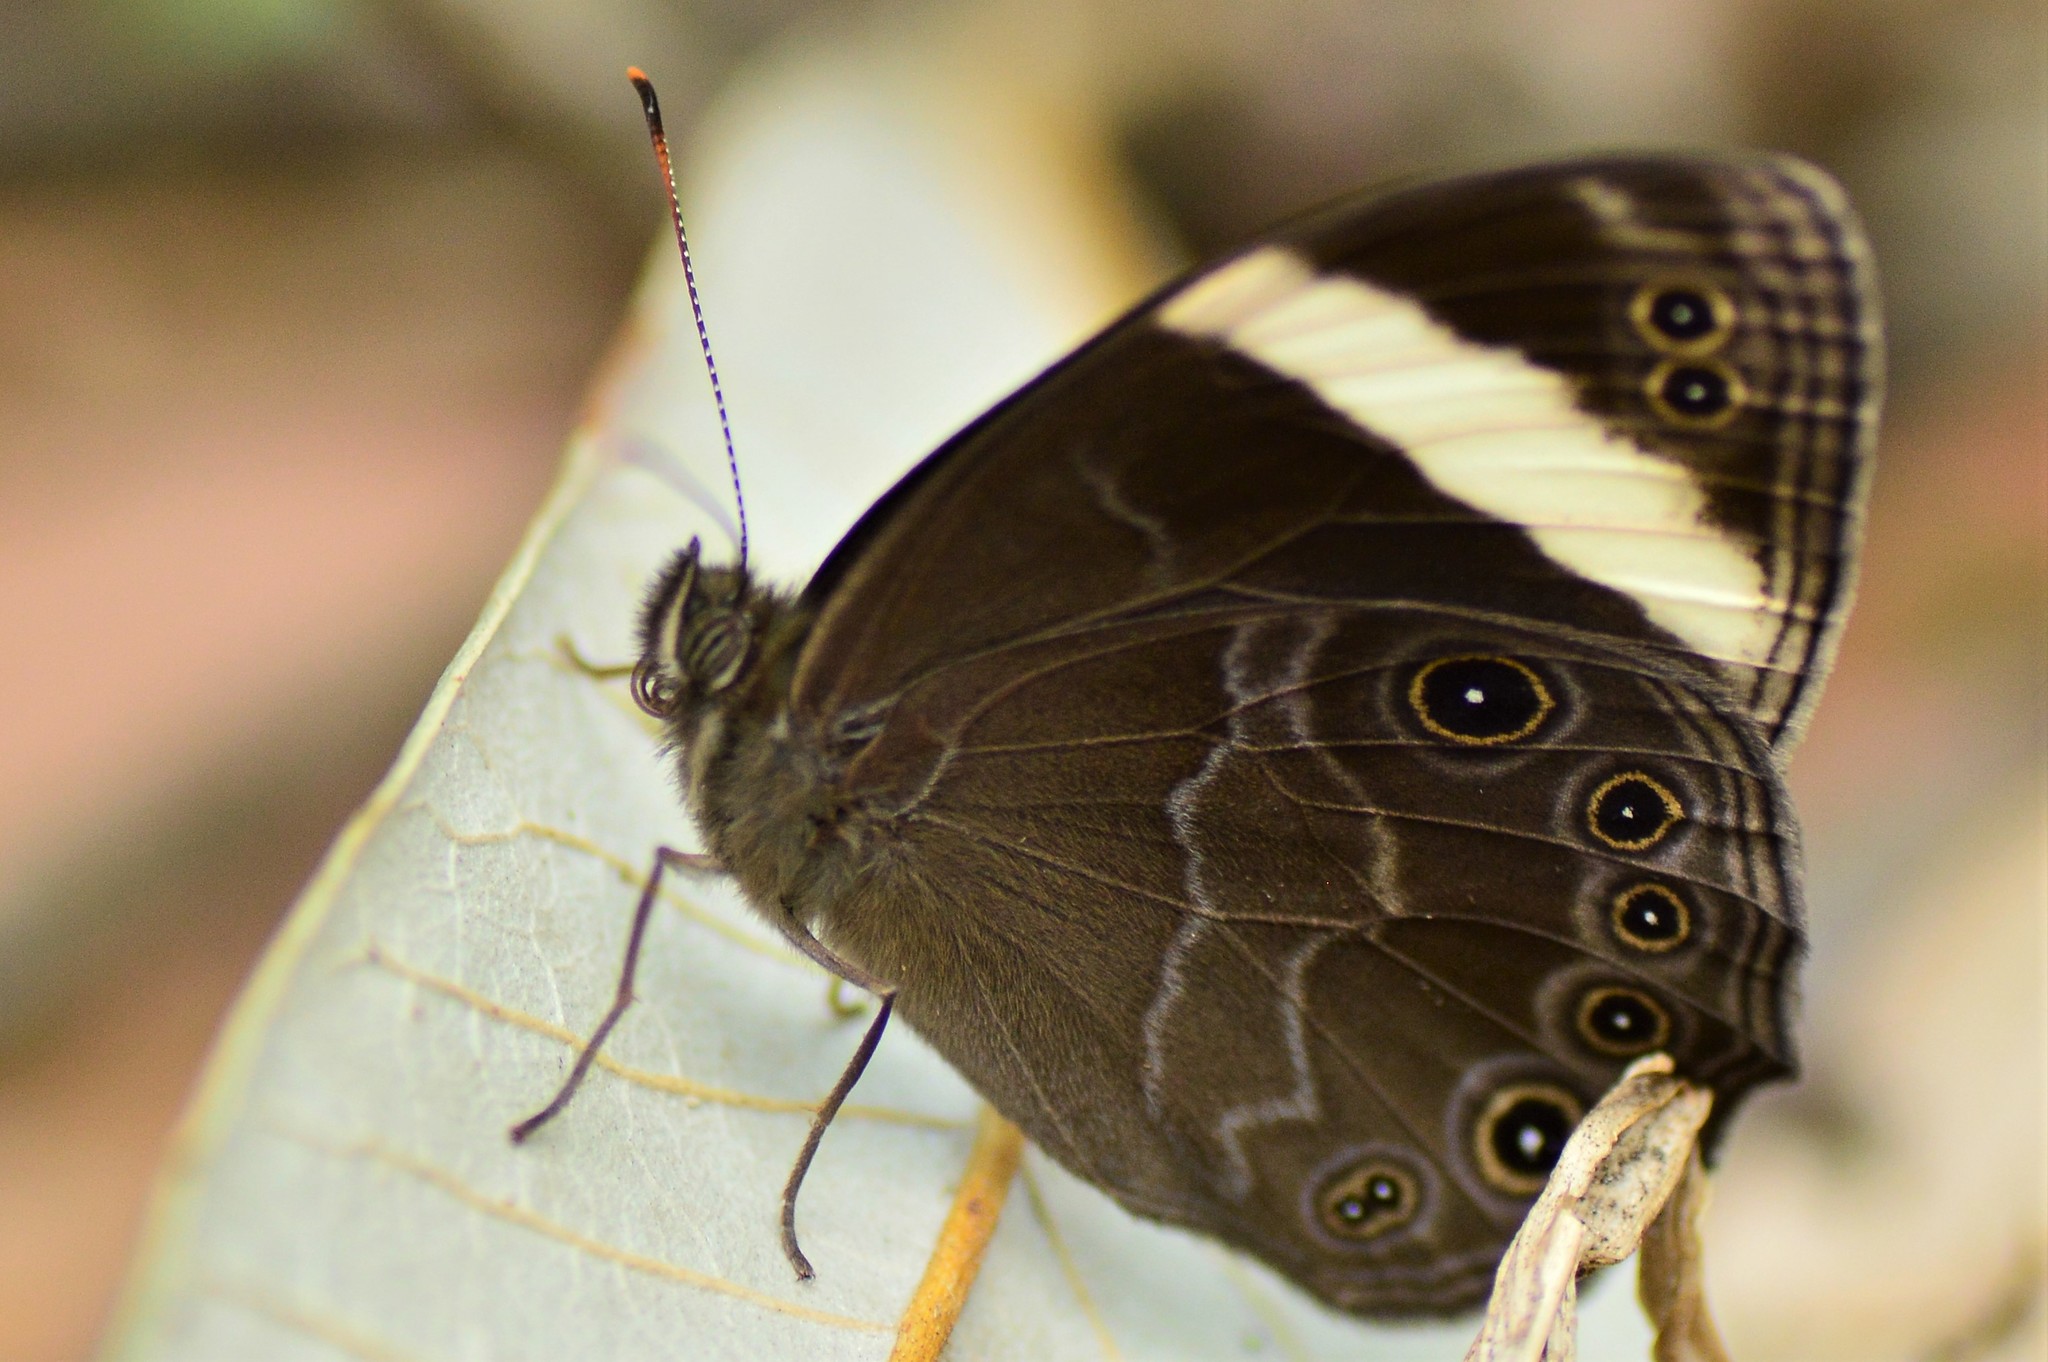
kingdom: Animalia
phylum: Arthropoda
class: Insecta
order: Lepidoptera
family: Nymphalidae
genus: Lethe
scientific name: Lethe verma
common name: Straight-banded treebrown
